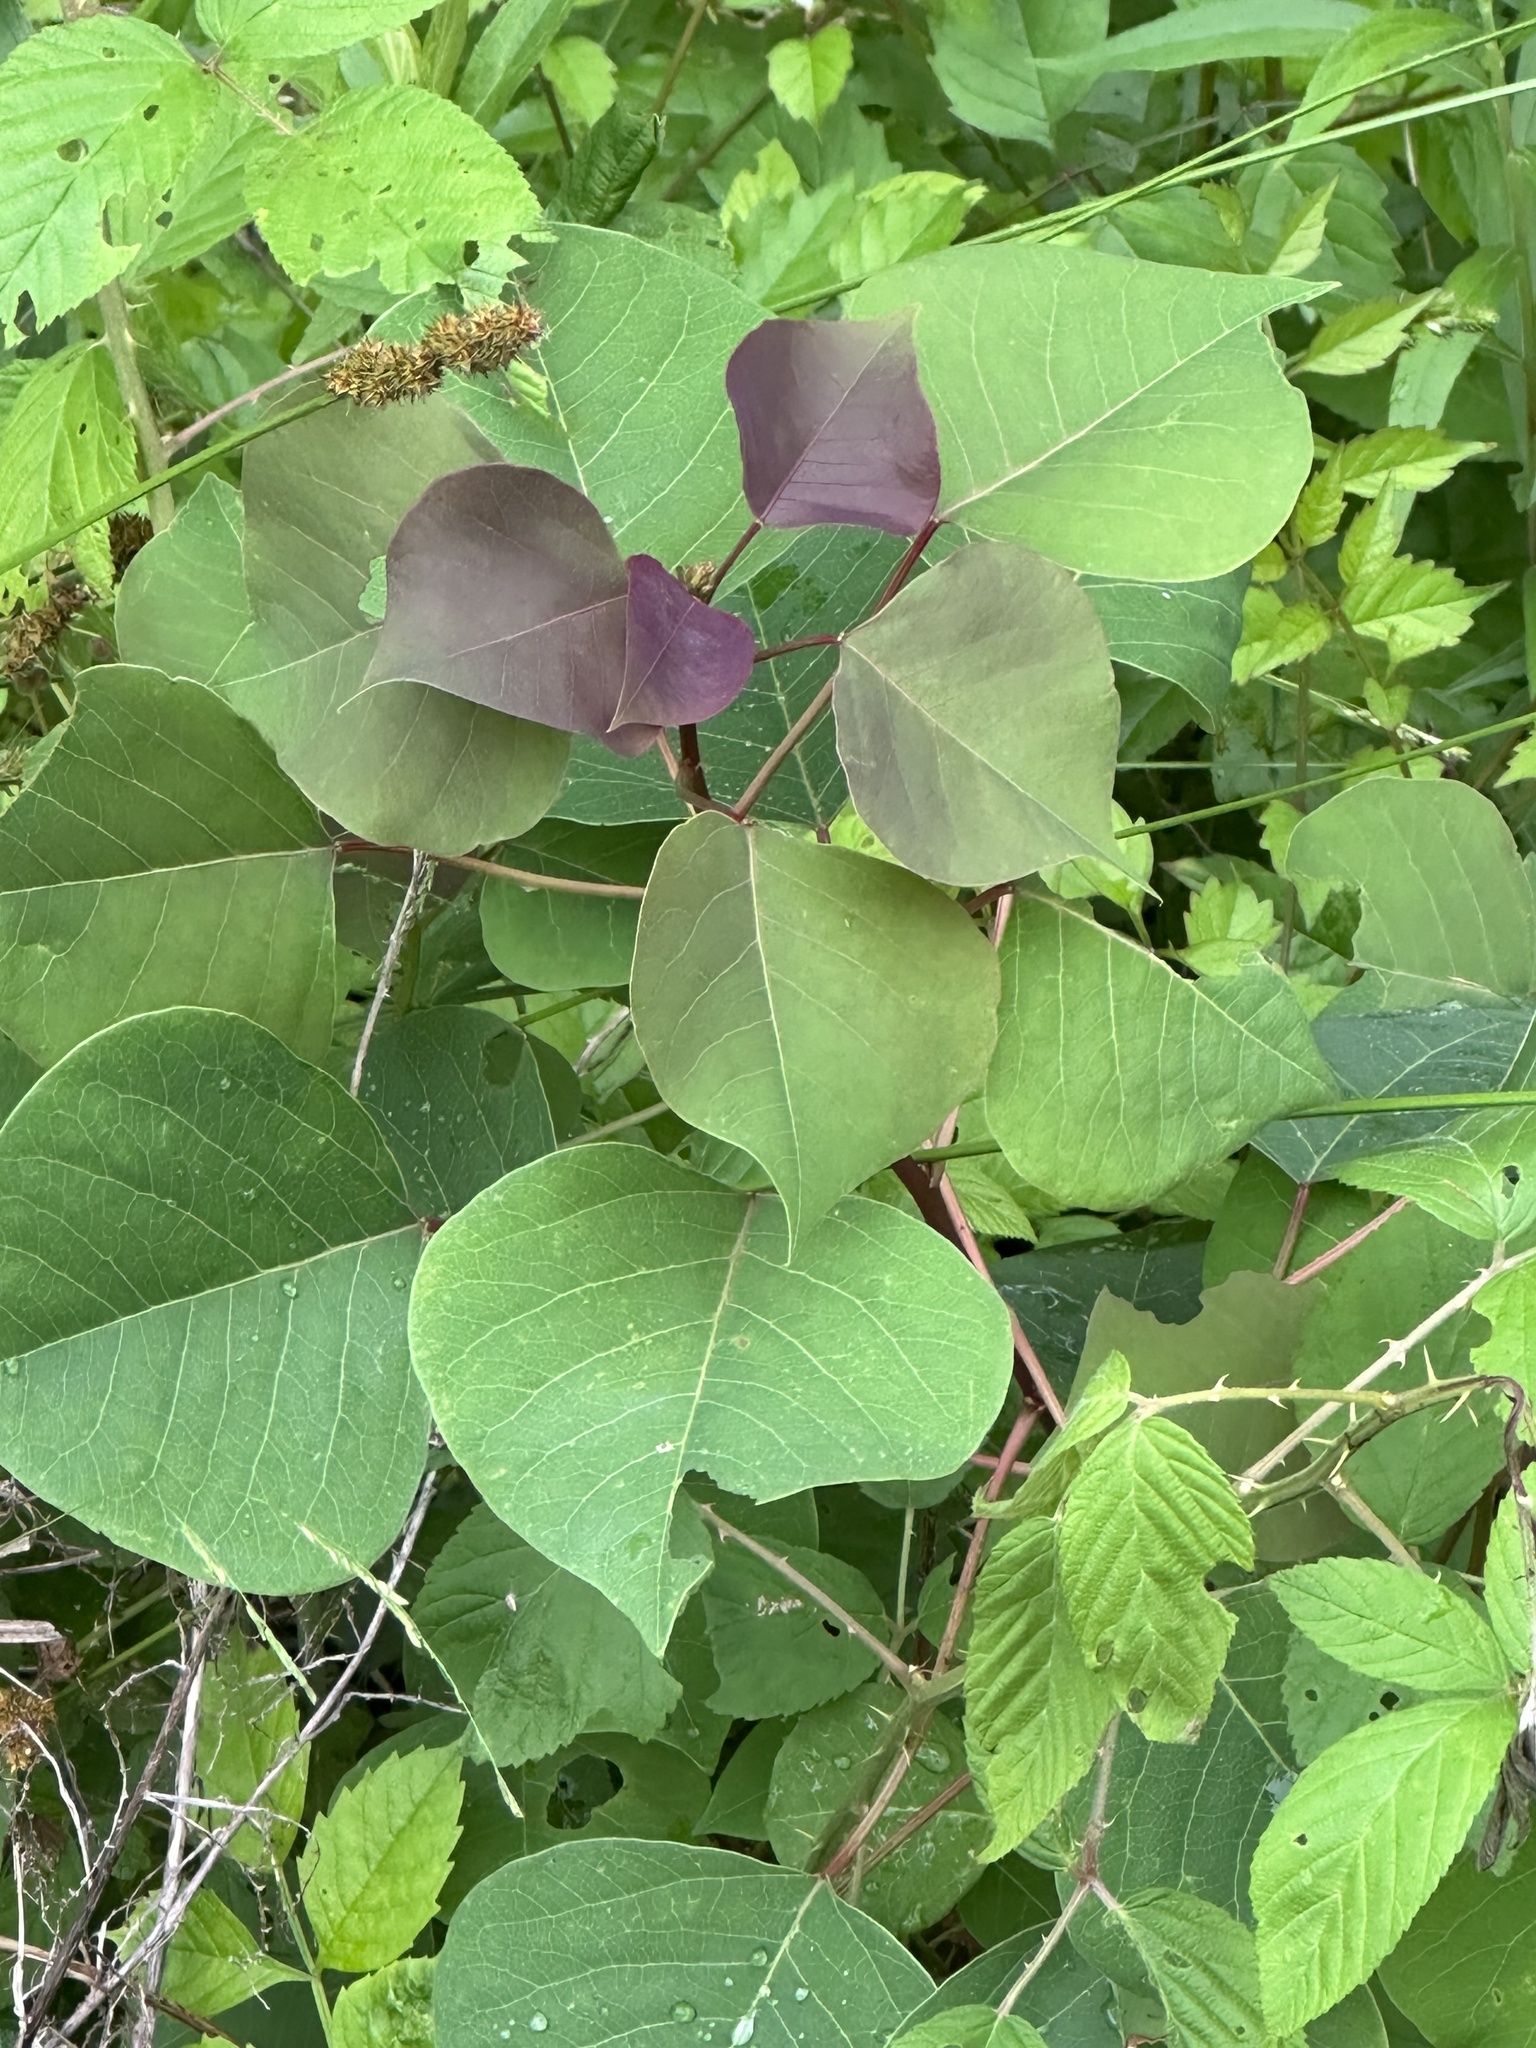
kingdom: Plantae
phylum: Tracheophyta
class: Magnoliopsida
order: Malpighiales
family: Euphorbiaceae
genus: Triadica
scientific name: Triadica sebifera
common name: Chinese tallow
